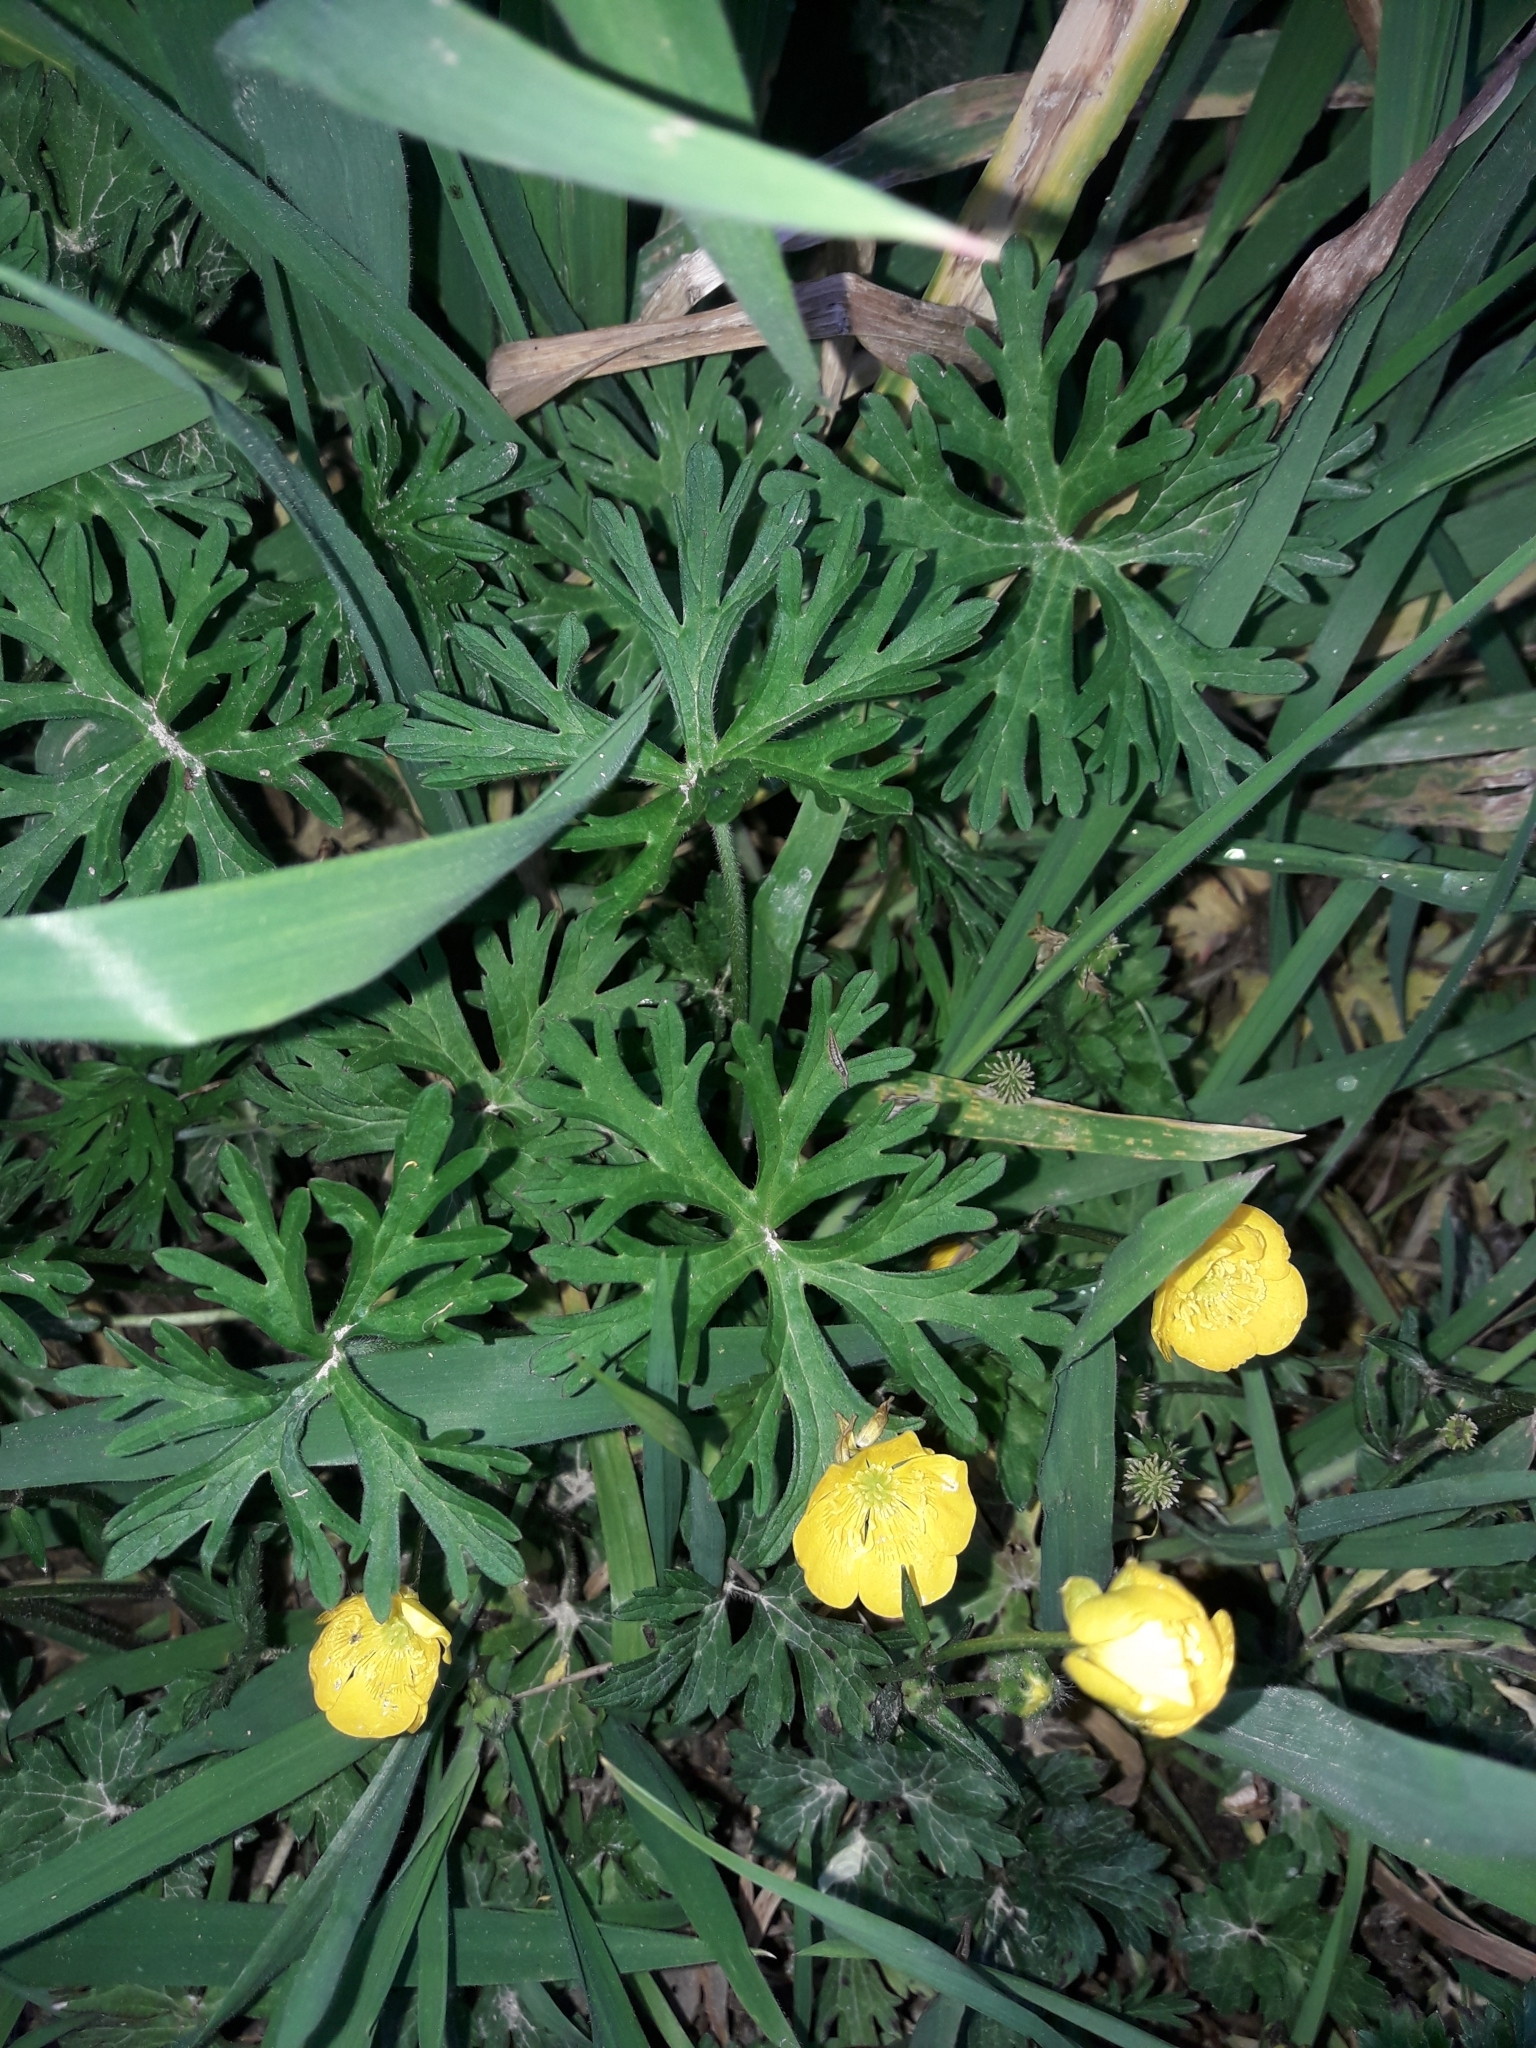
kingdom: Plantae
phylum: Tracheophyta
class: Magnoliopsida
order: Ranunculales
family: Ranunculaceae
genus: Ranunculus
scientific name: Ranunculus acris
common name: Meadow buttercup
